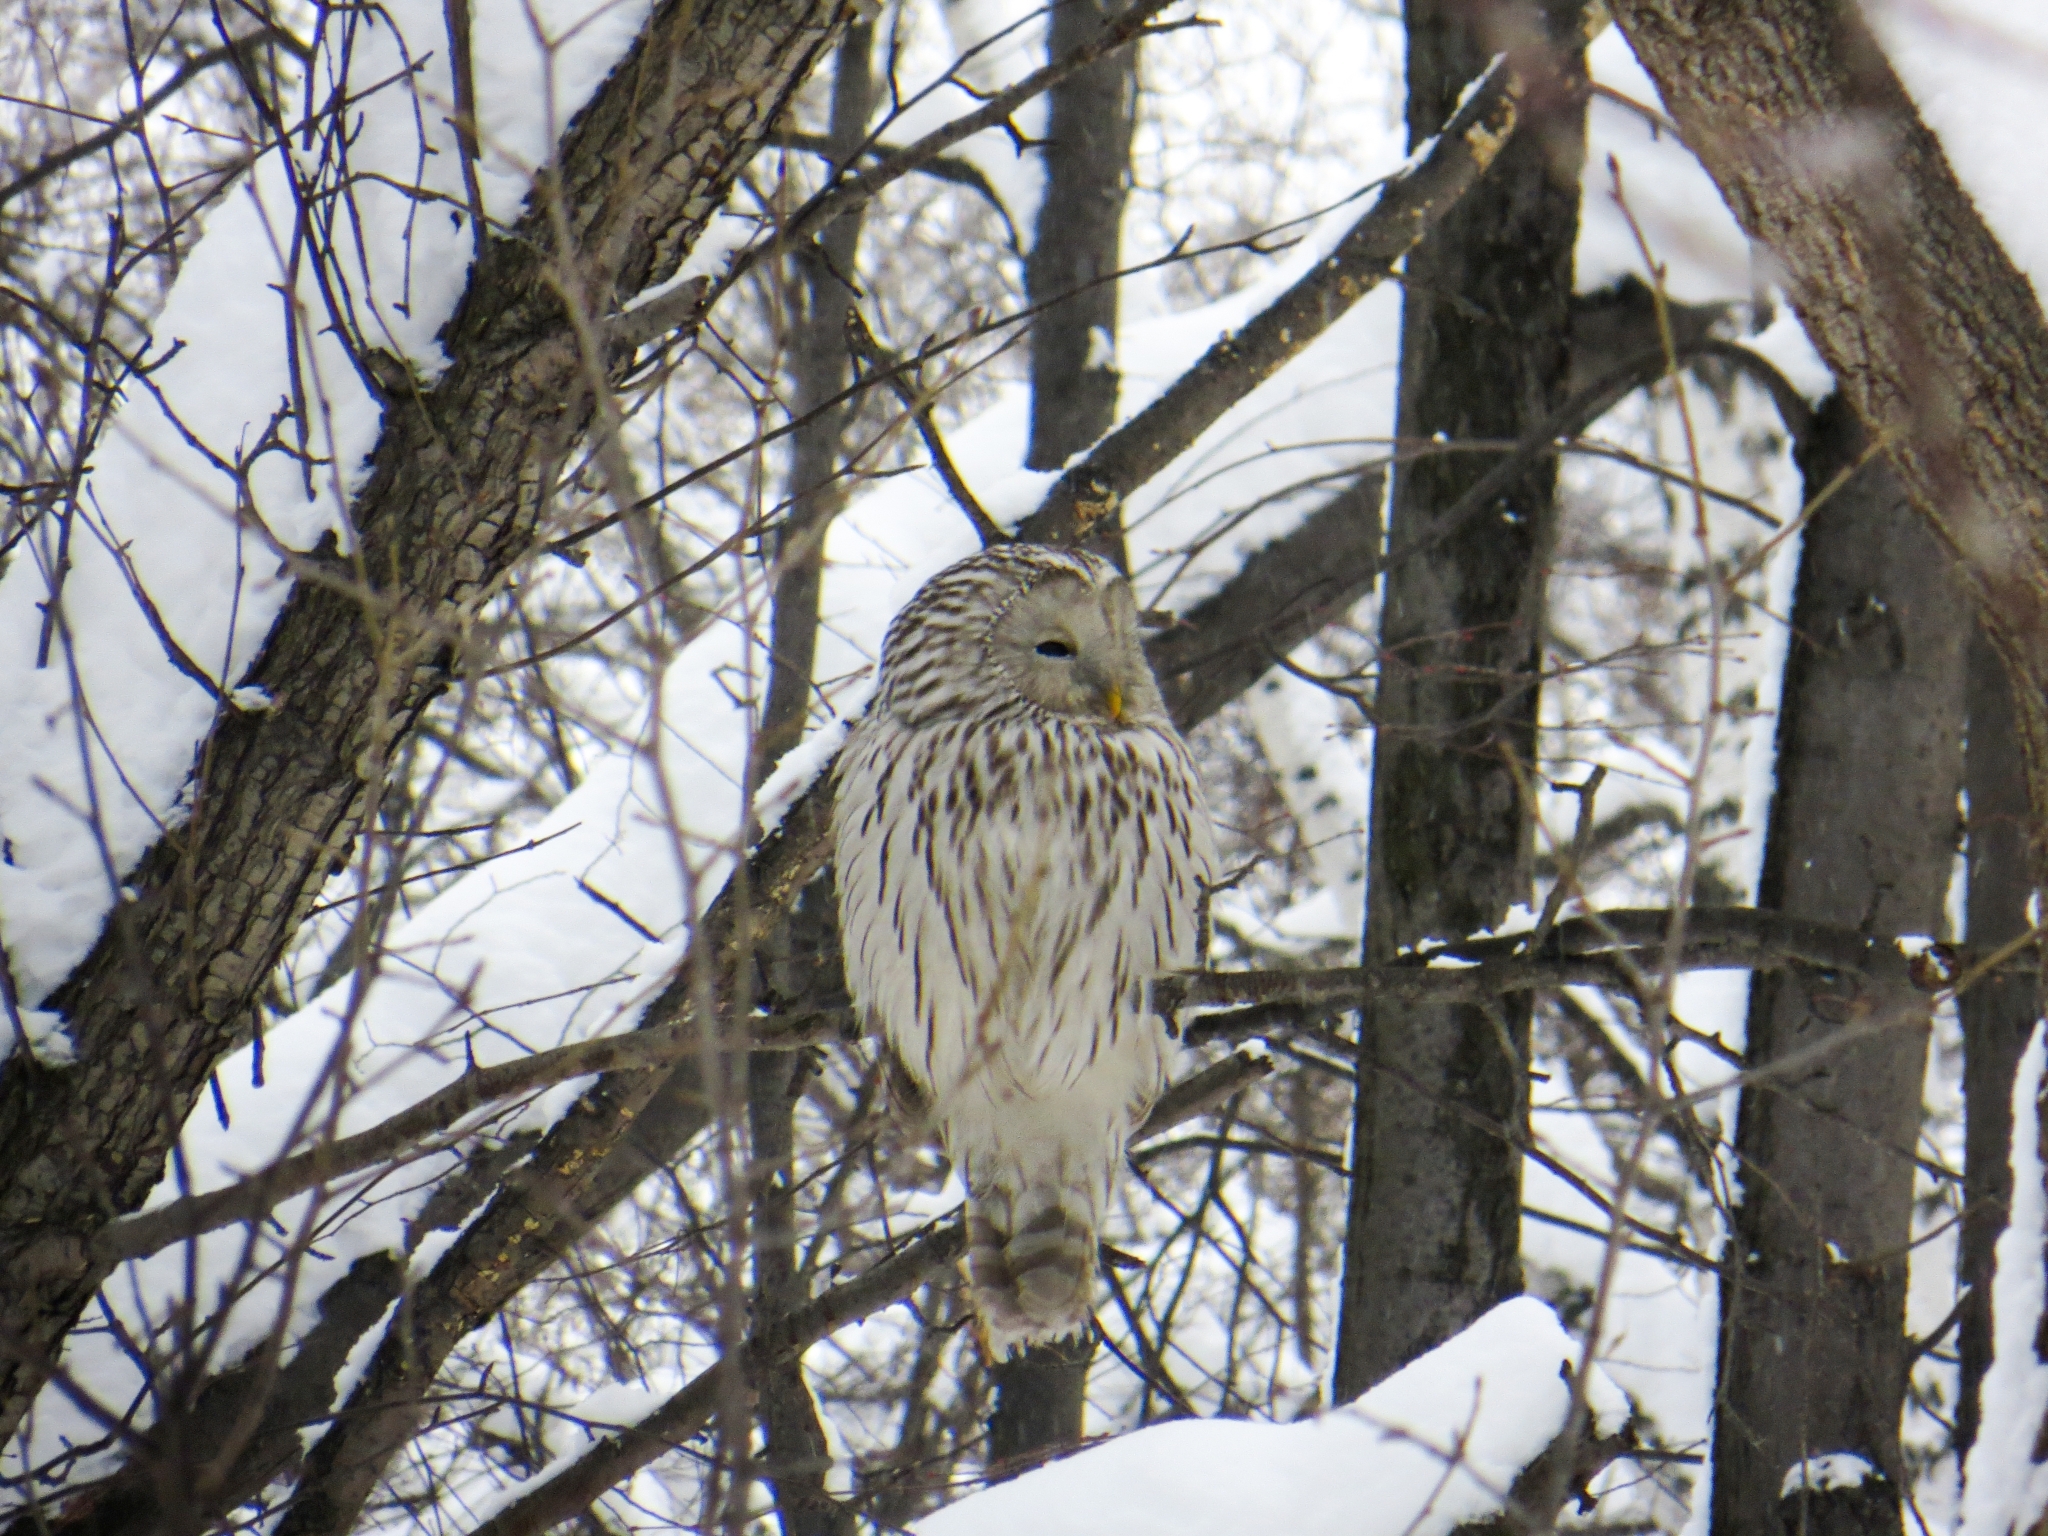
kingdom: Animalia
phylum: Chordata
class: Aves
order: Strigiformes
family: Strigidae
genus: Strix
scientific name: Strix uralensis
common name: Ural owl
